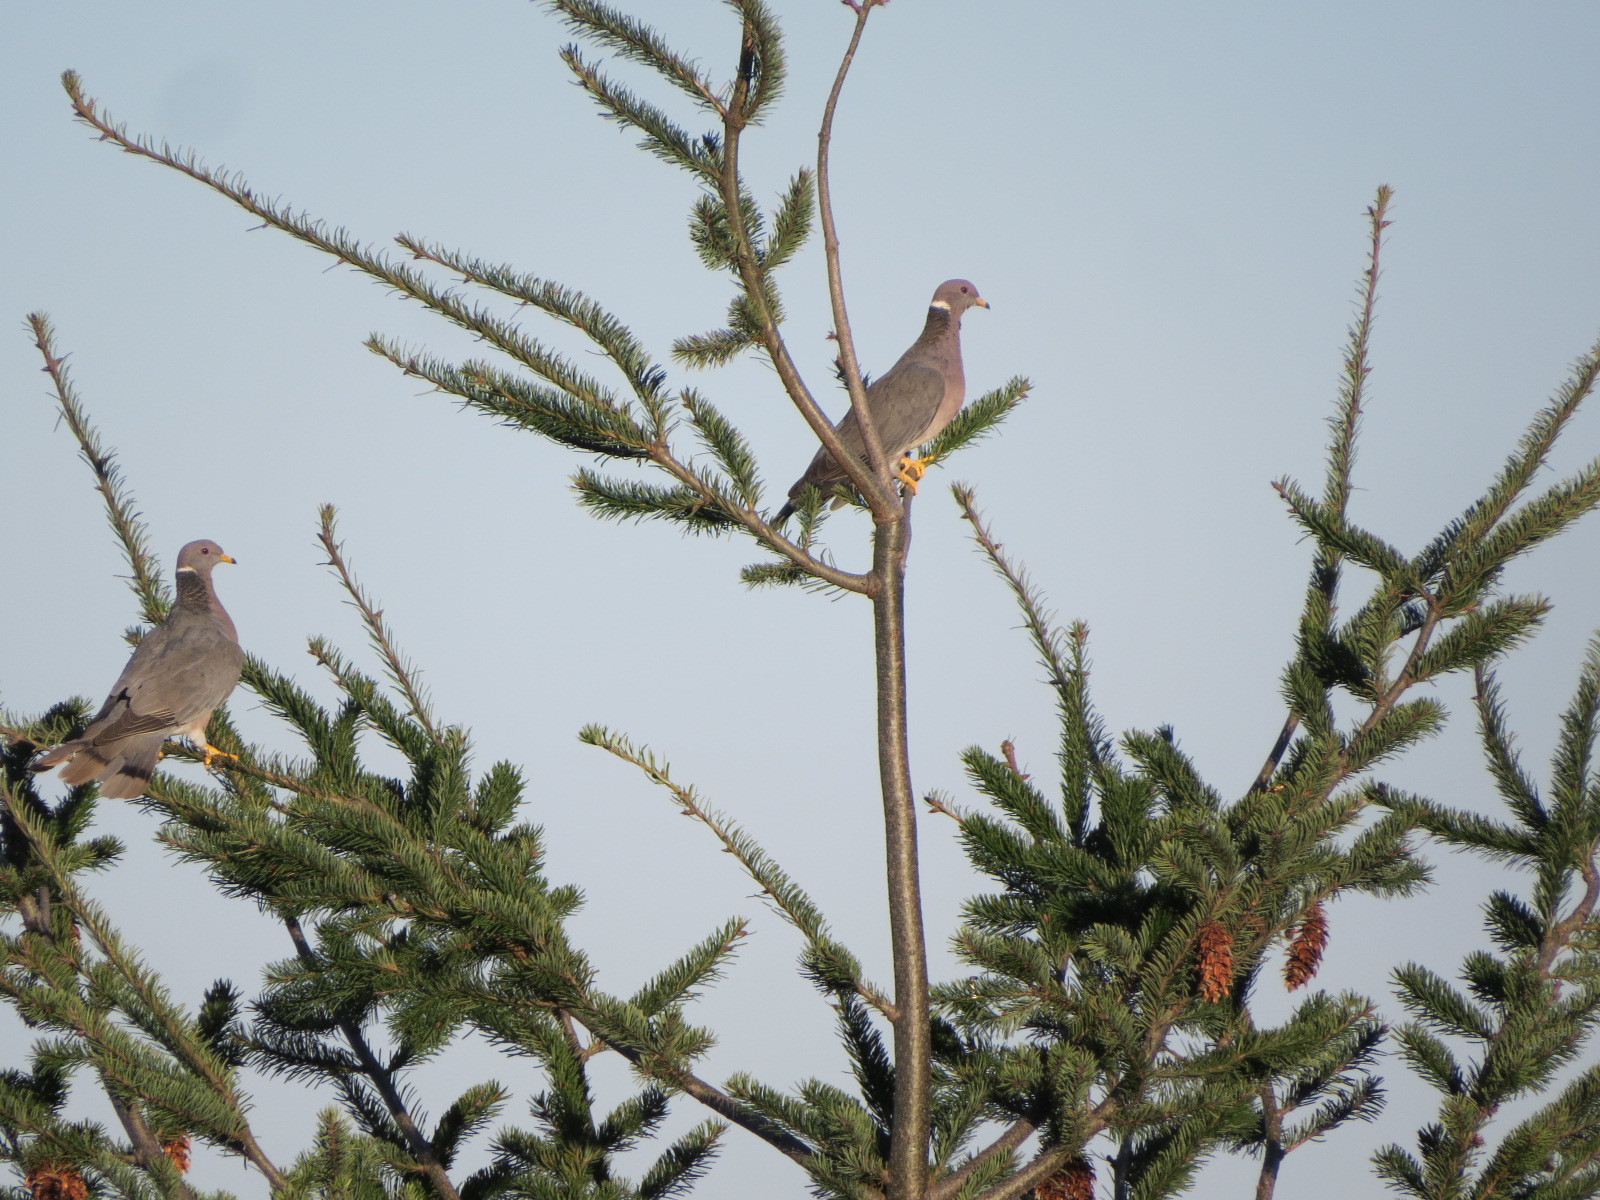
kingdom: Animalia
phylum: Chordata
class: Aves
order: Columbiformes
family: Columbidae
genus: Patagioenas
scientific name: Patagioenas fasciata
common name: Band-tailed pigeon
